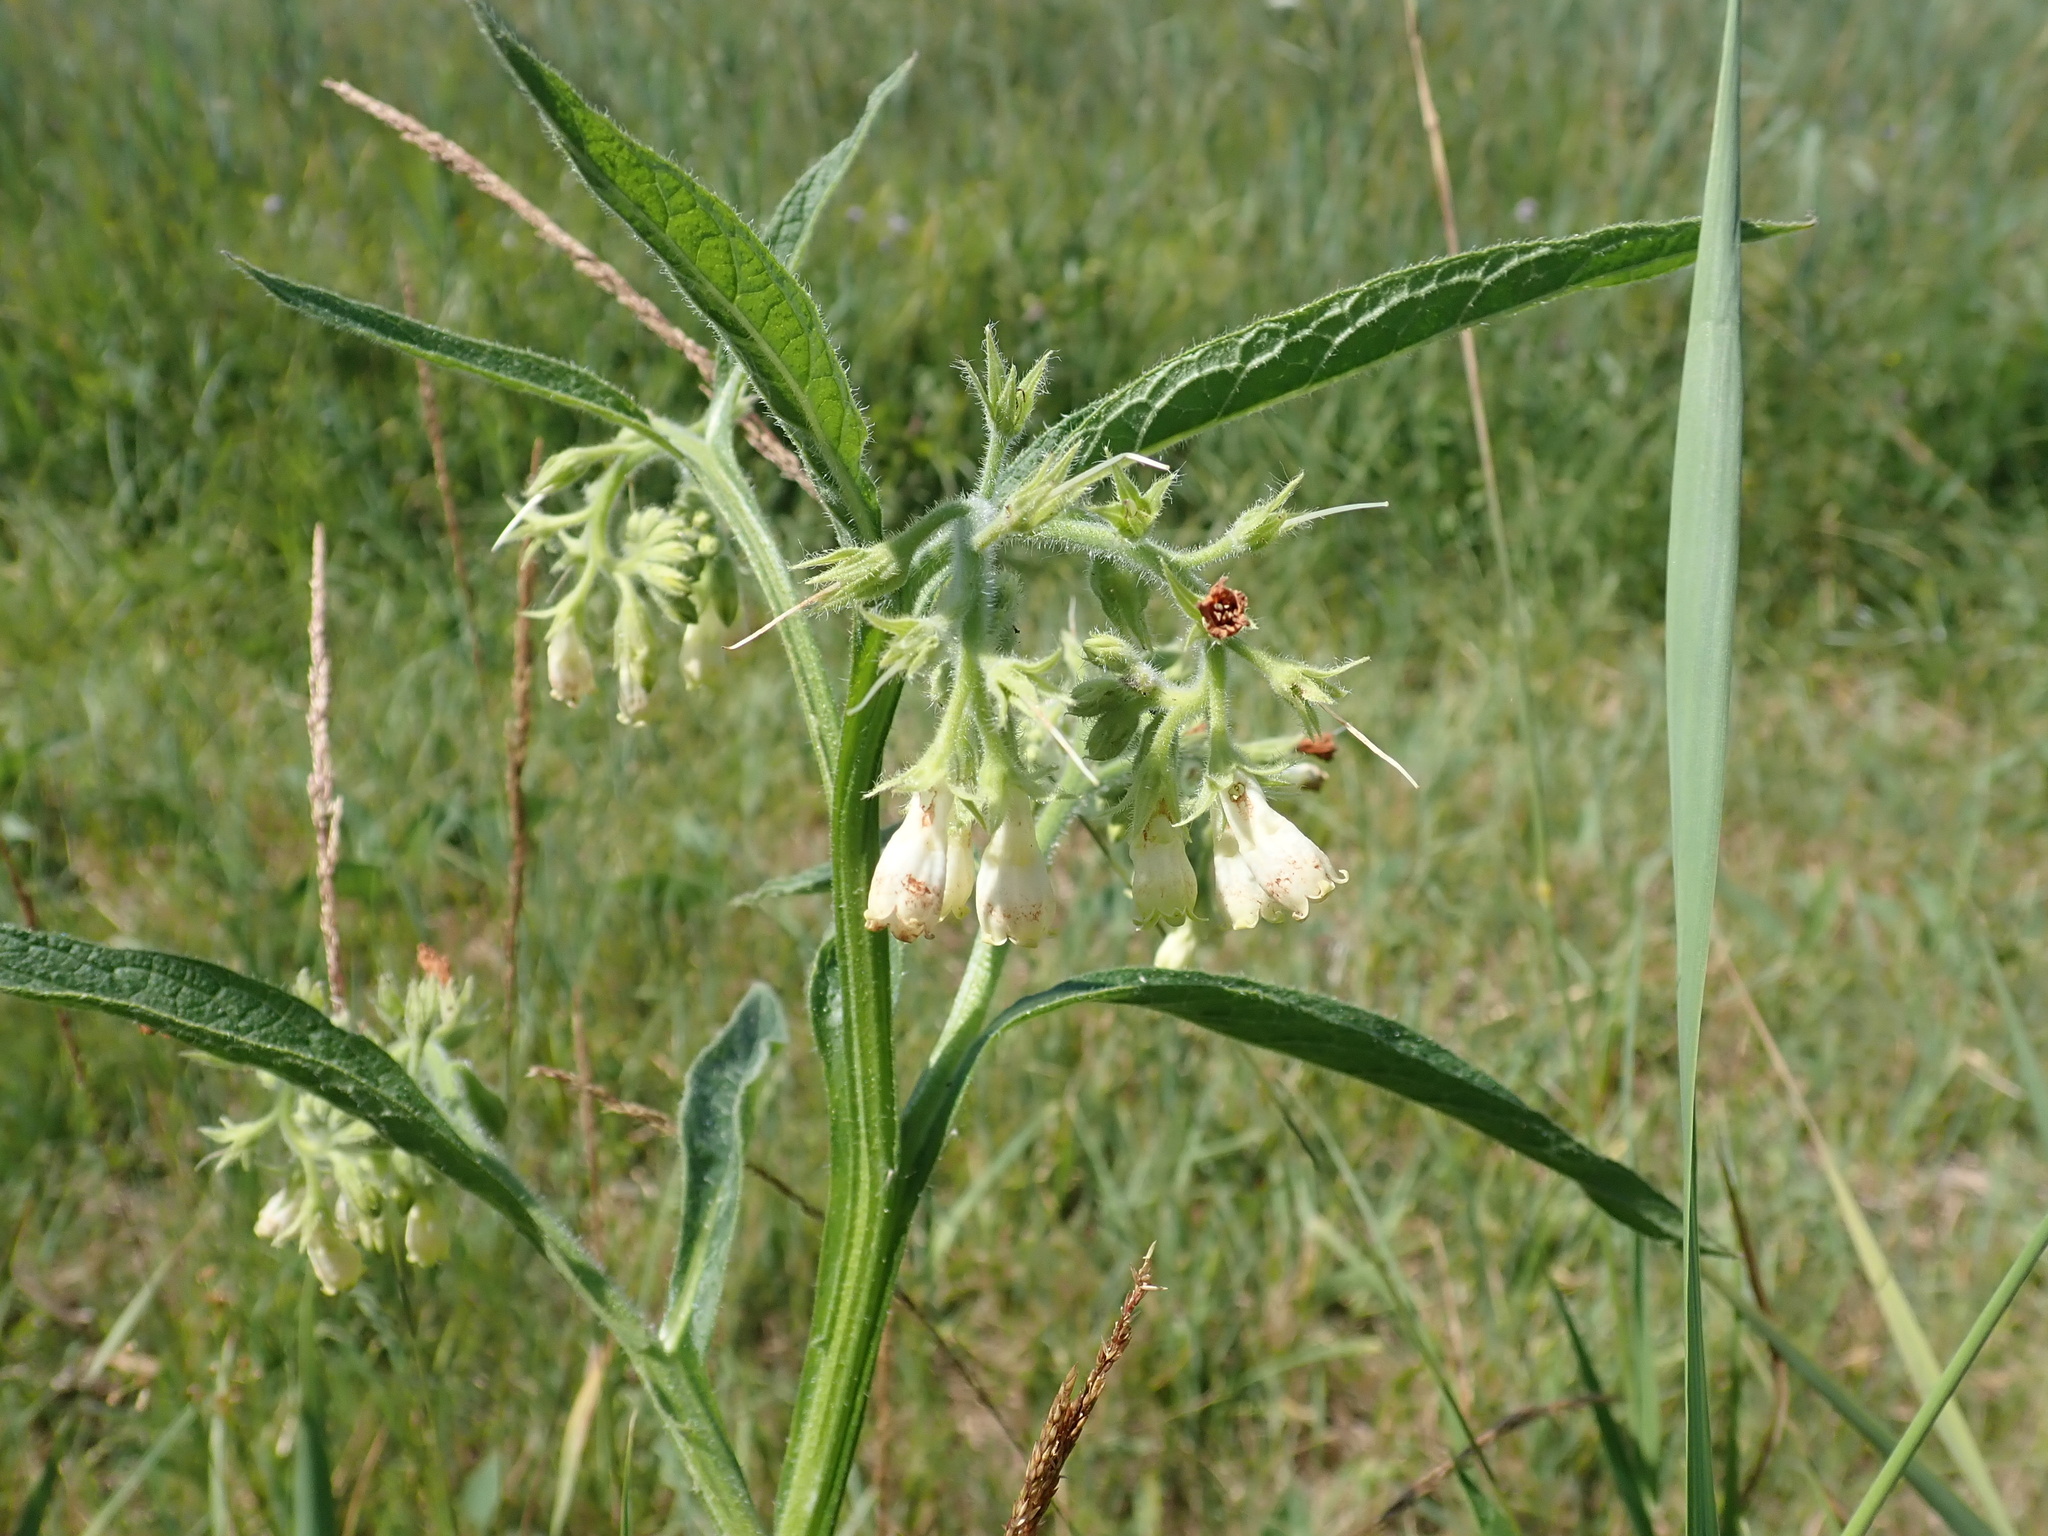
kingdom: Plantae
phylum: Tracheophyta
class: Magnoliopsida
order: Boraginales
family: Boraginaceae
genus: Symphytum
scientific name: Symphytum officinale
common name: Common comfrey
